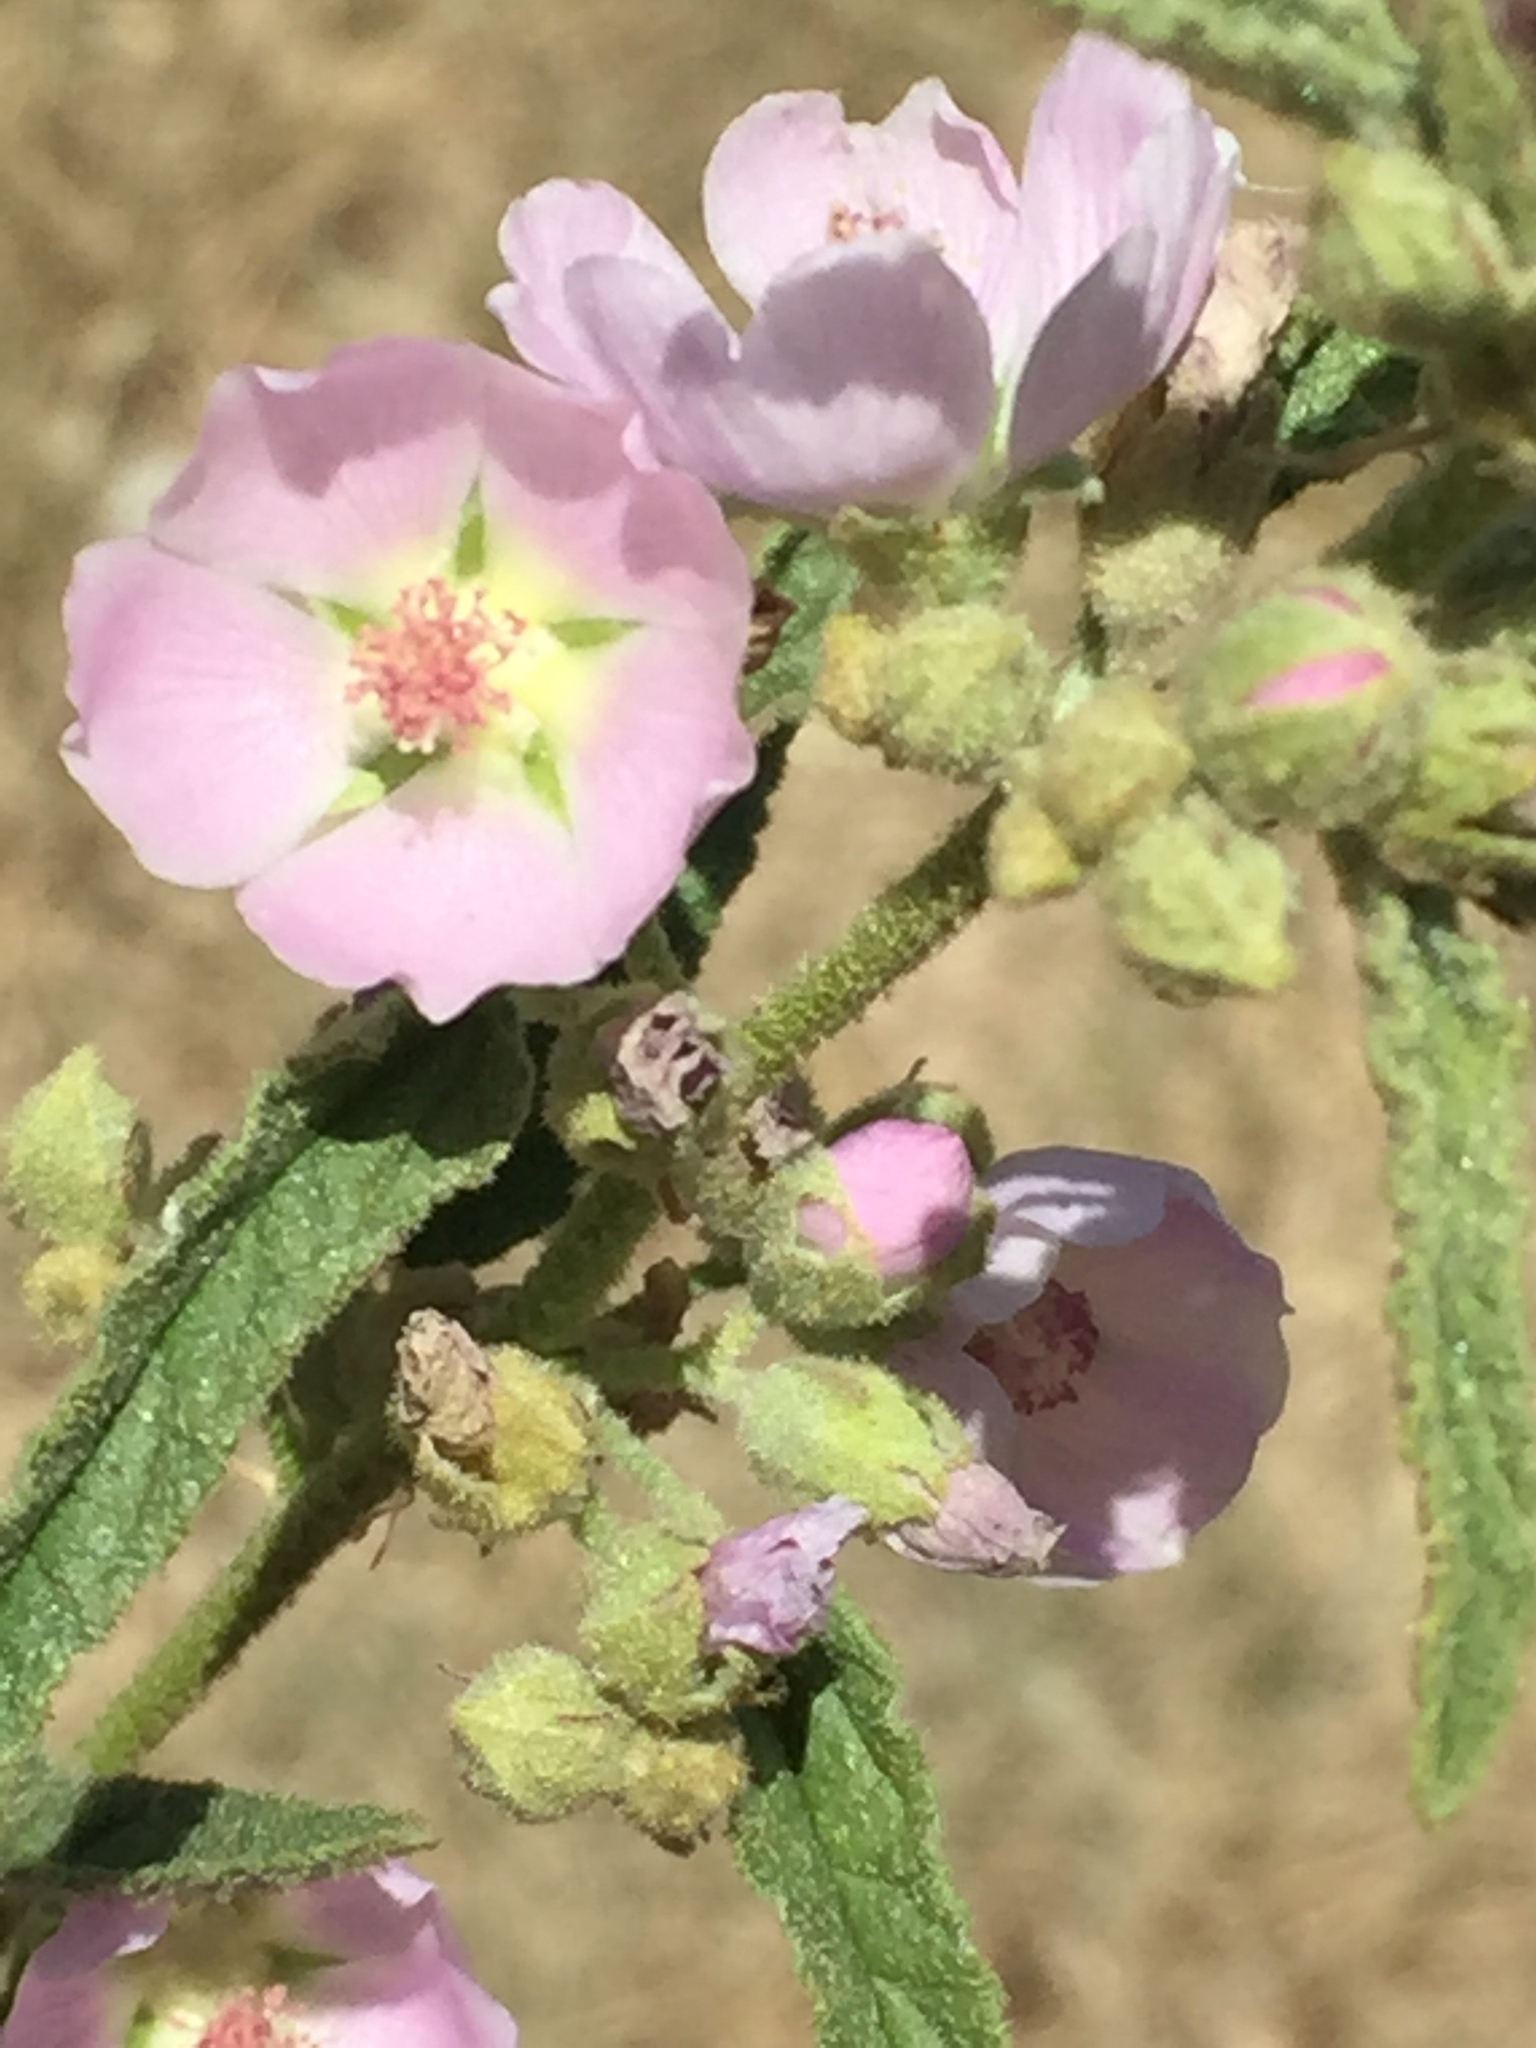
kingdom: Plantae
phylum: Tracheophyta
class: Magnoliopsida
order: Malvales
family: Malvaceae
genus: Sphaeralcea
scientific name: Sphaeralcea angustifolia
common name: Copper globe-mallow
